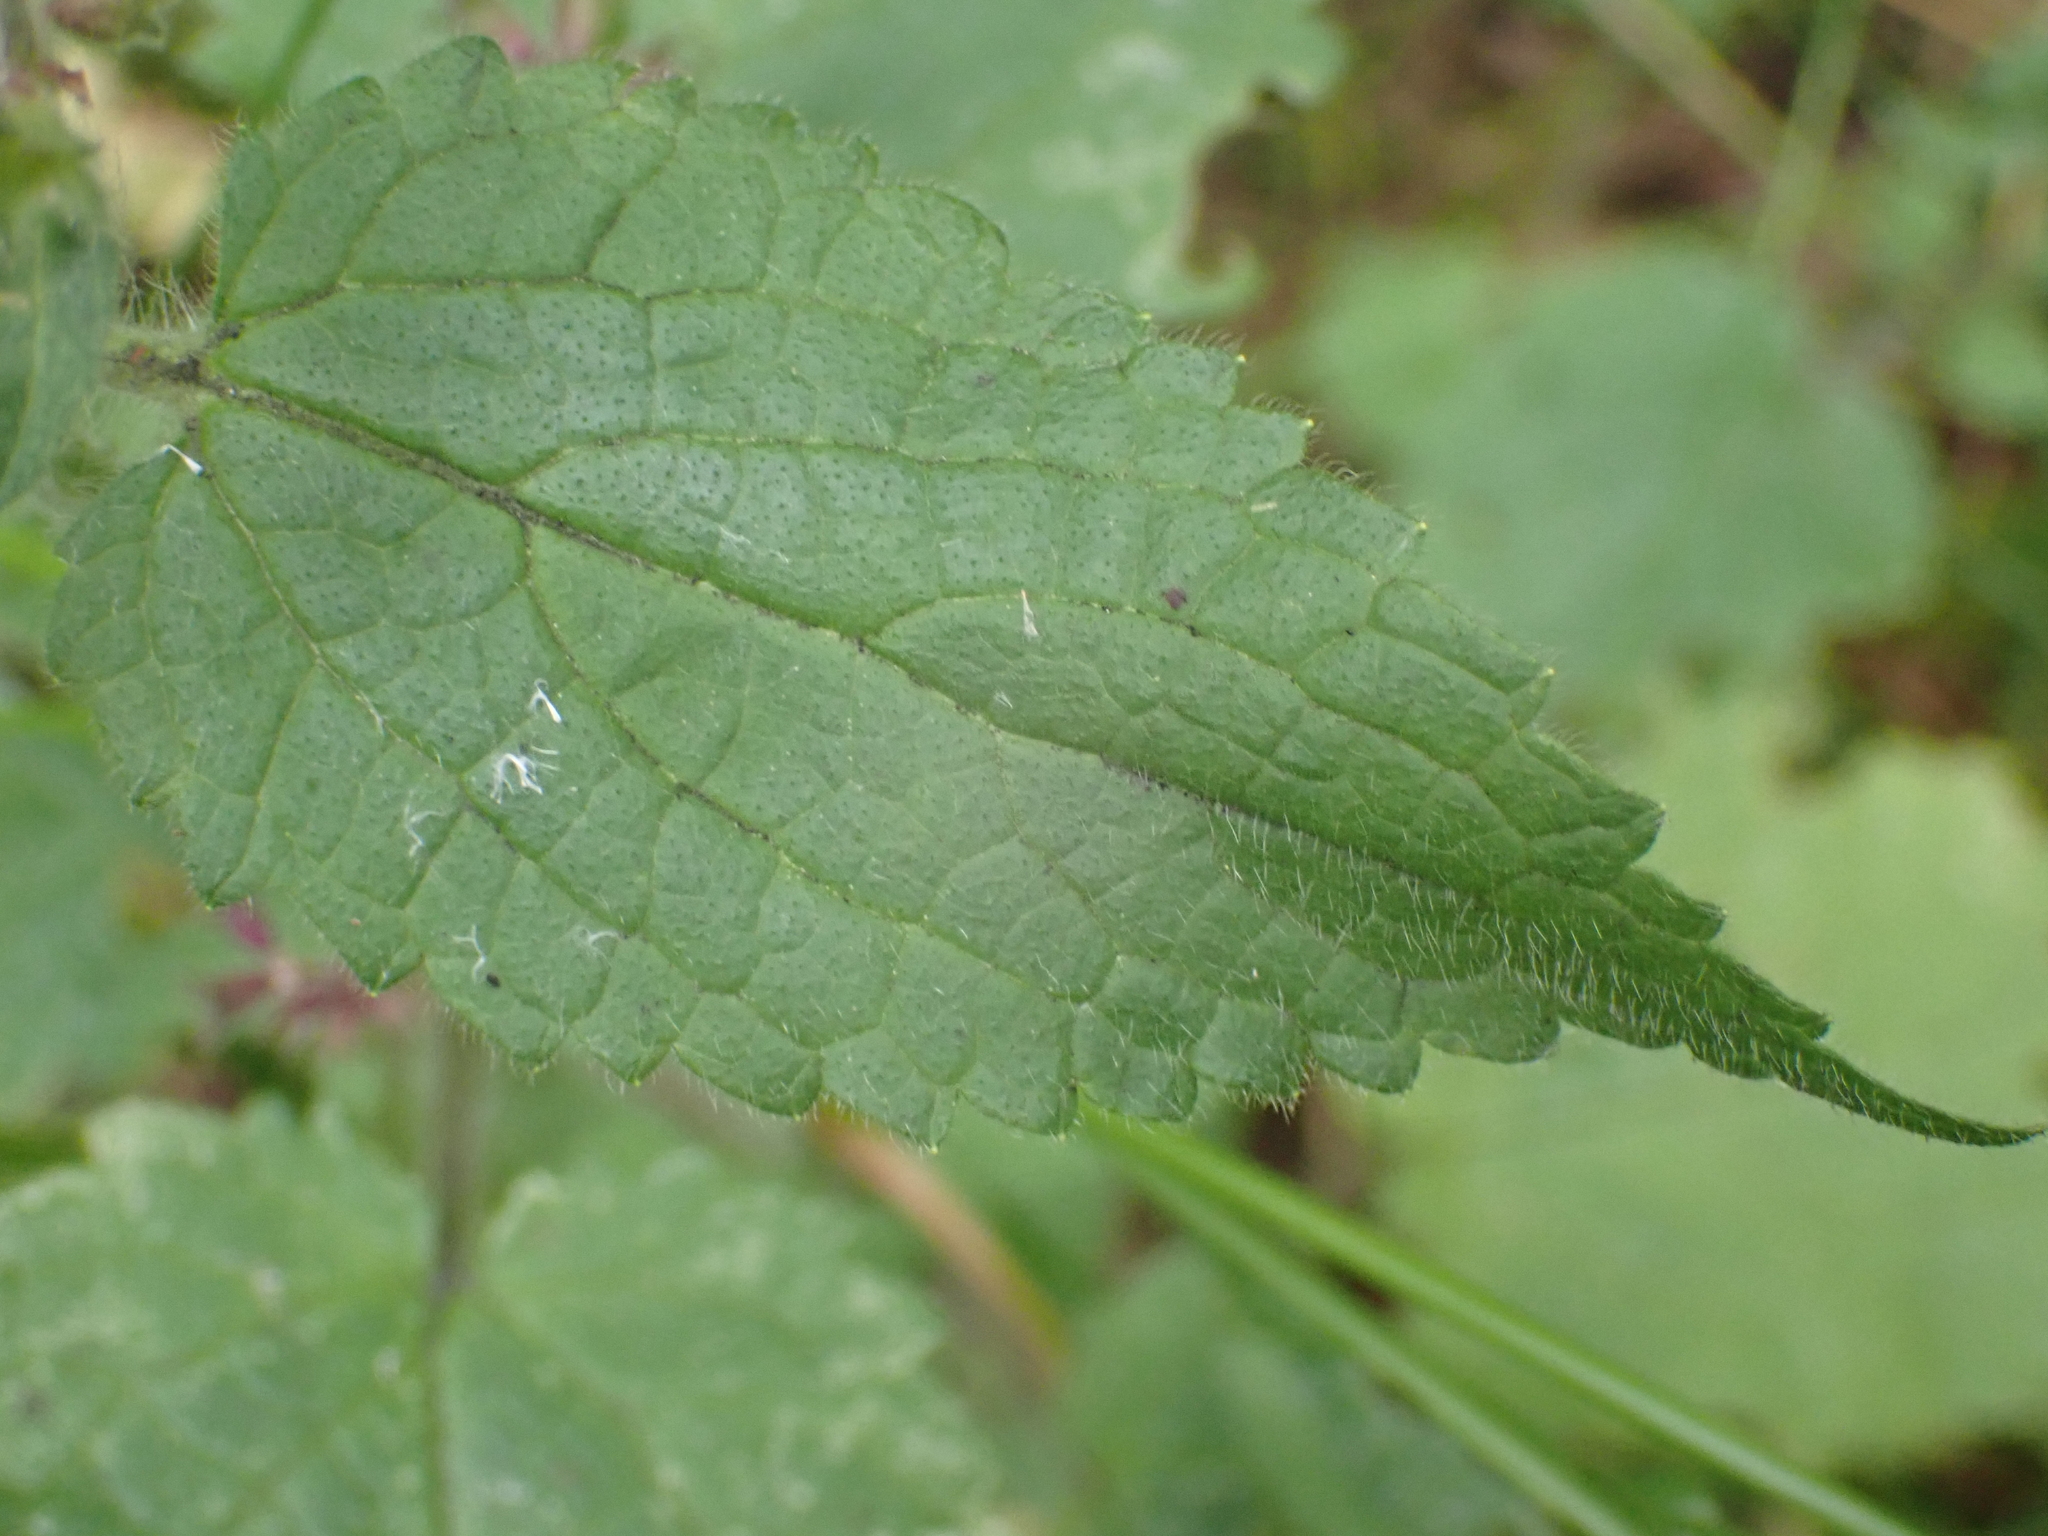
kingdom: Plantae
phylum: Tracheophyta
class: Magnoliopsida
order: Lamiales
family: Lamiaceae
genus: Stachys
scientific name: Stachys sylvatica
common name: Hedge woundwort
